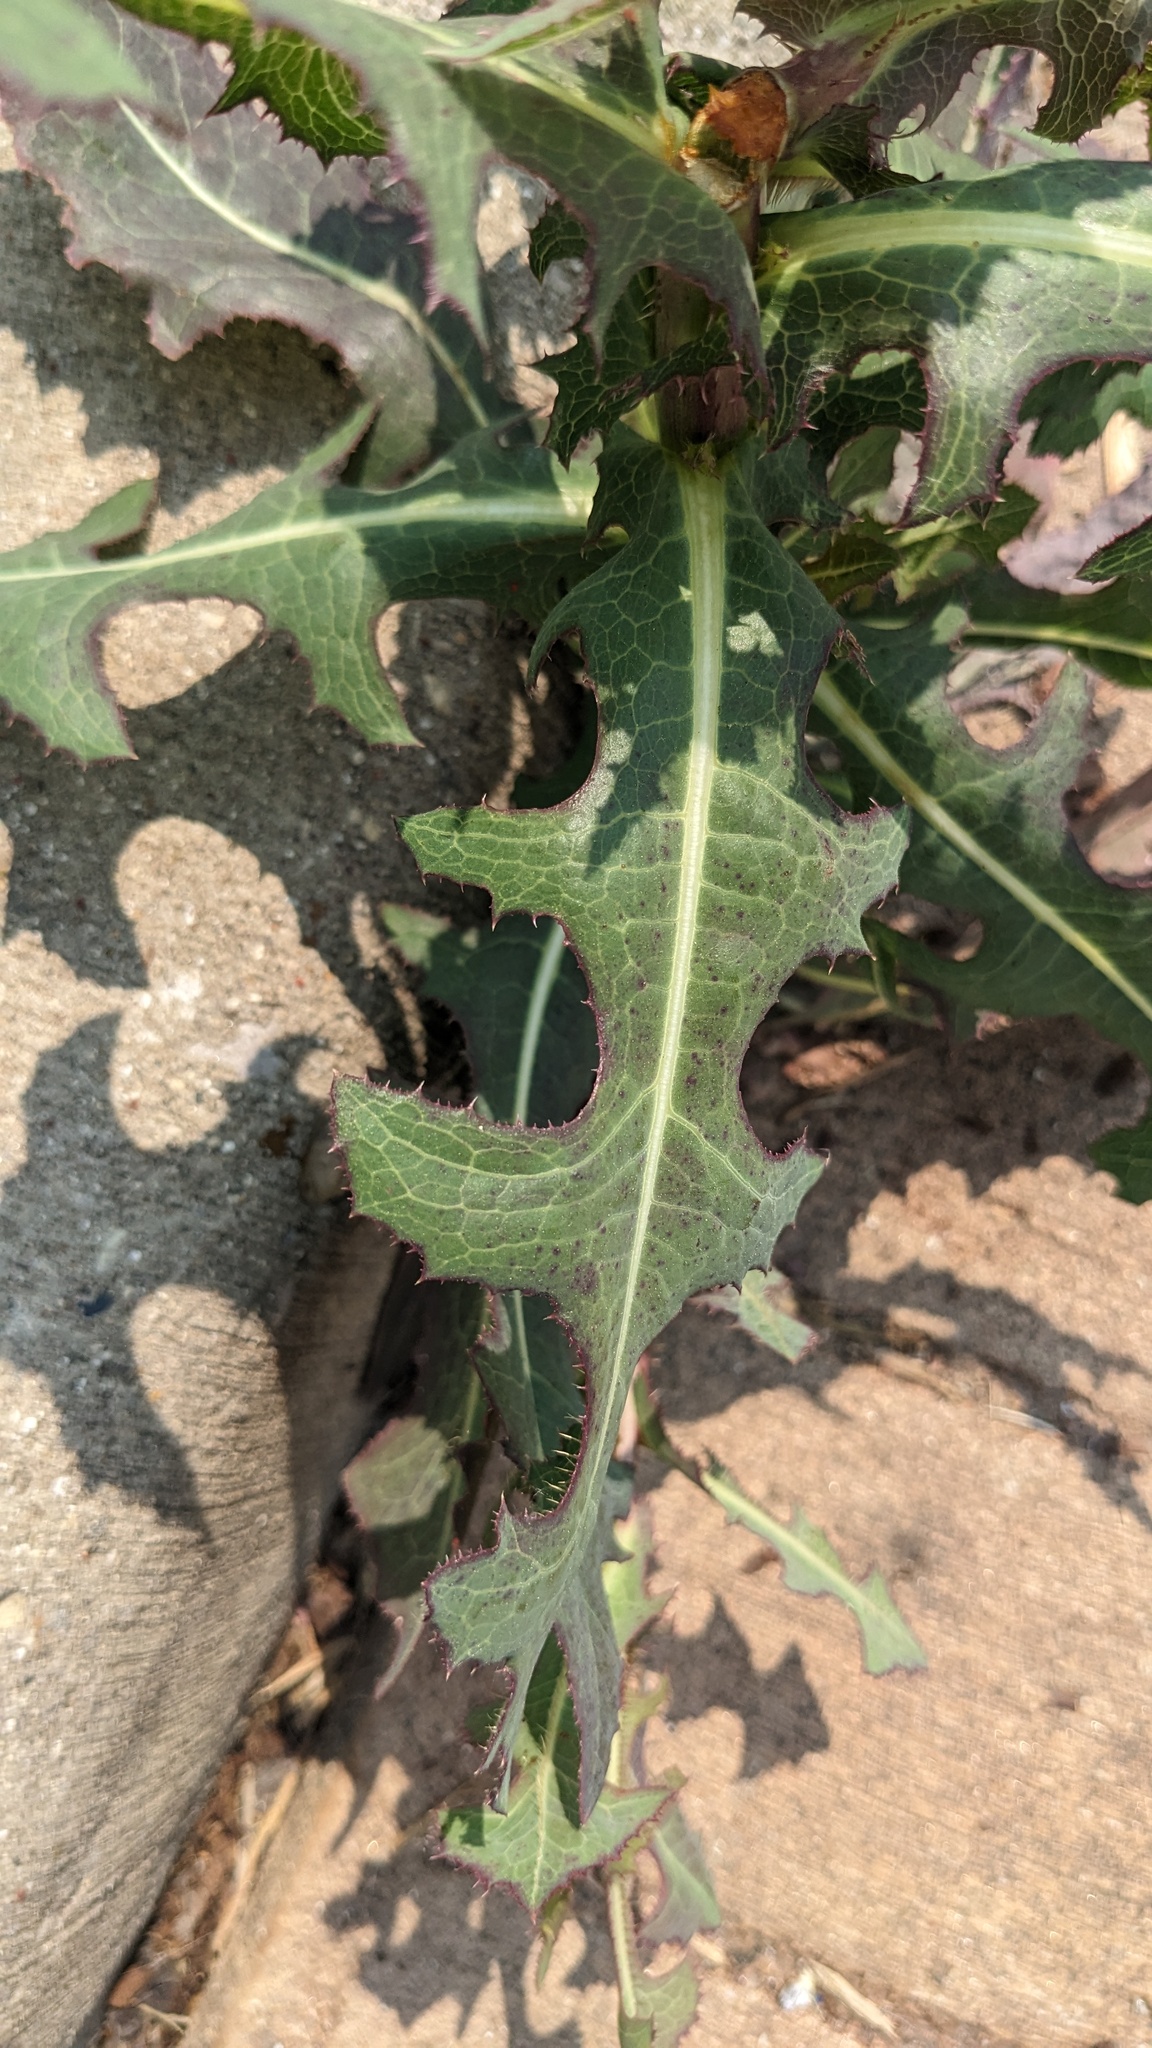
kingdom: Plantae
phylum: Tracheophyta
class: Magnoliopsida
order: Asterales
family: Asteraceae
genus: Lactuca
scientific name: Lactuca serriola
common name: Prickly lettuce
